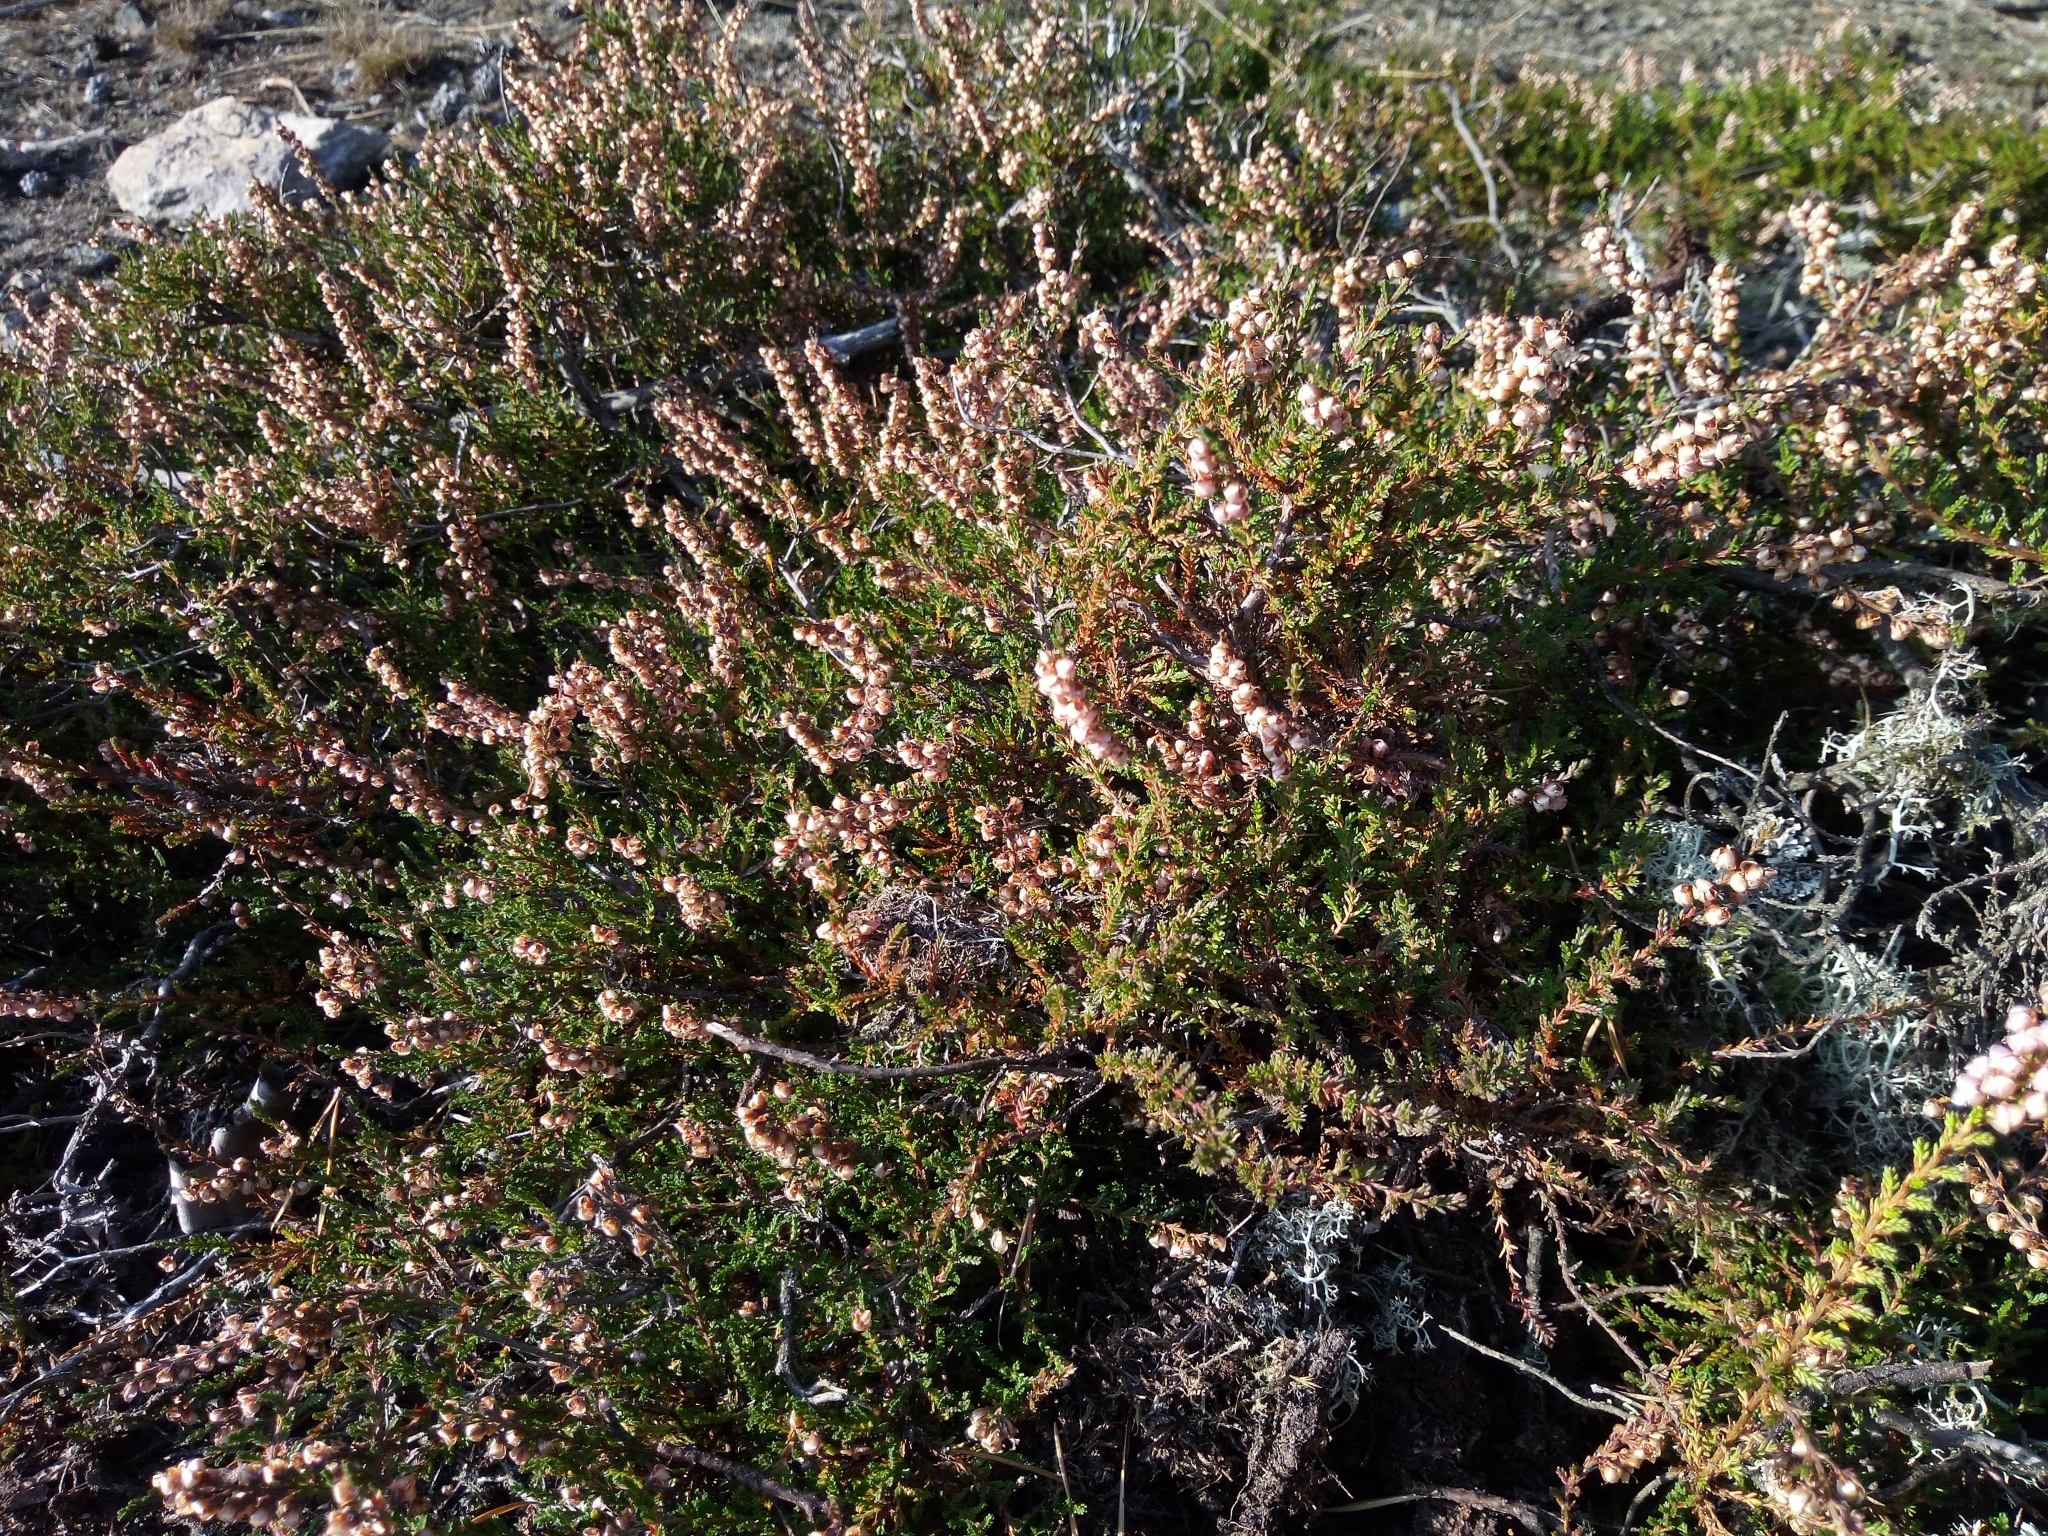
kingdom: Plantae
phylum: Tracheophyta
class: Magnoliopsida
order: Ericales
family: Ericaceae
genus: Calluna
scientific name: Calluna vulgaris
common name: Heather
